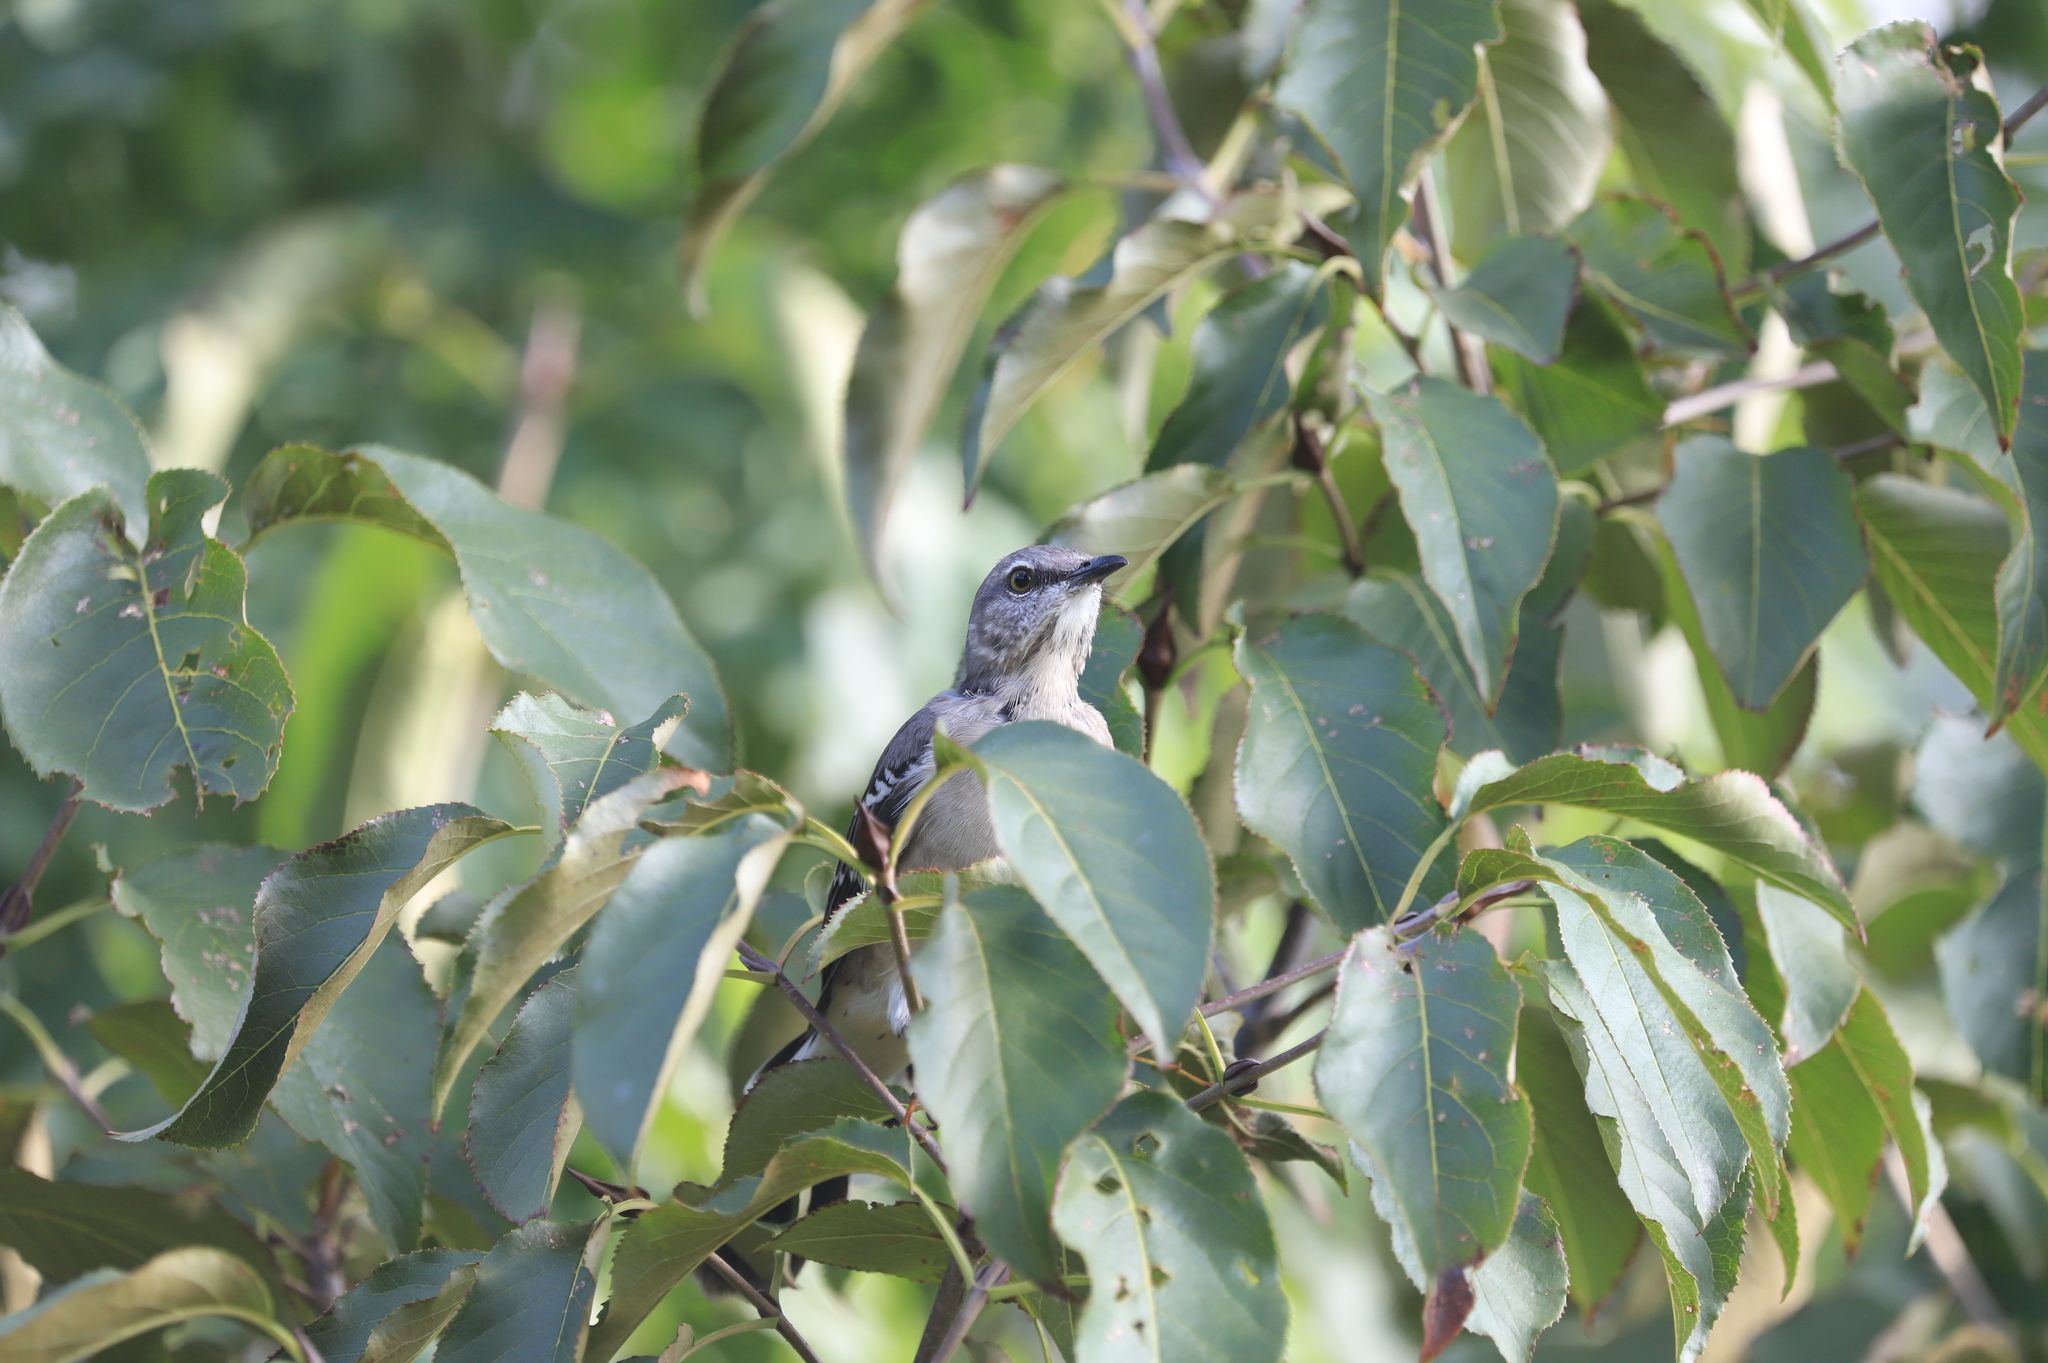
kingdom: Animalia
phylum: Chordata
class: Aves
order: Passeriformes
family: Mimidae
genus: Mimus
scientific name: Mimus polyglottos
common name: Northern mockingbird
